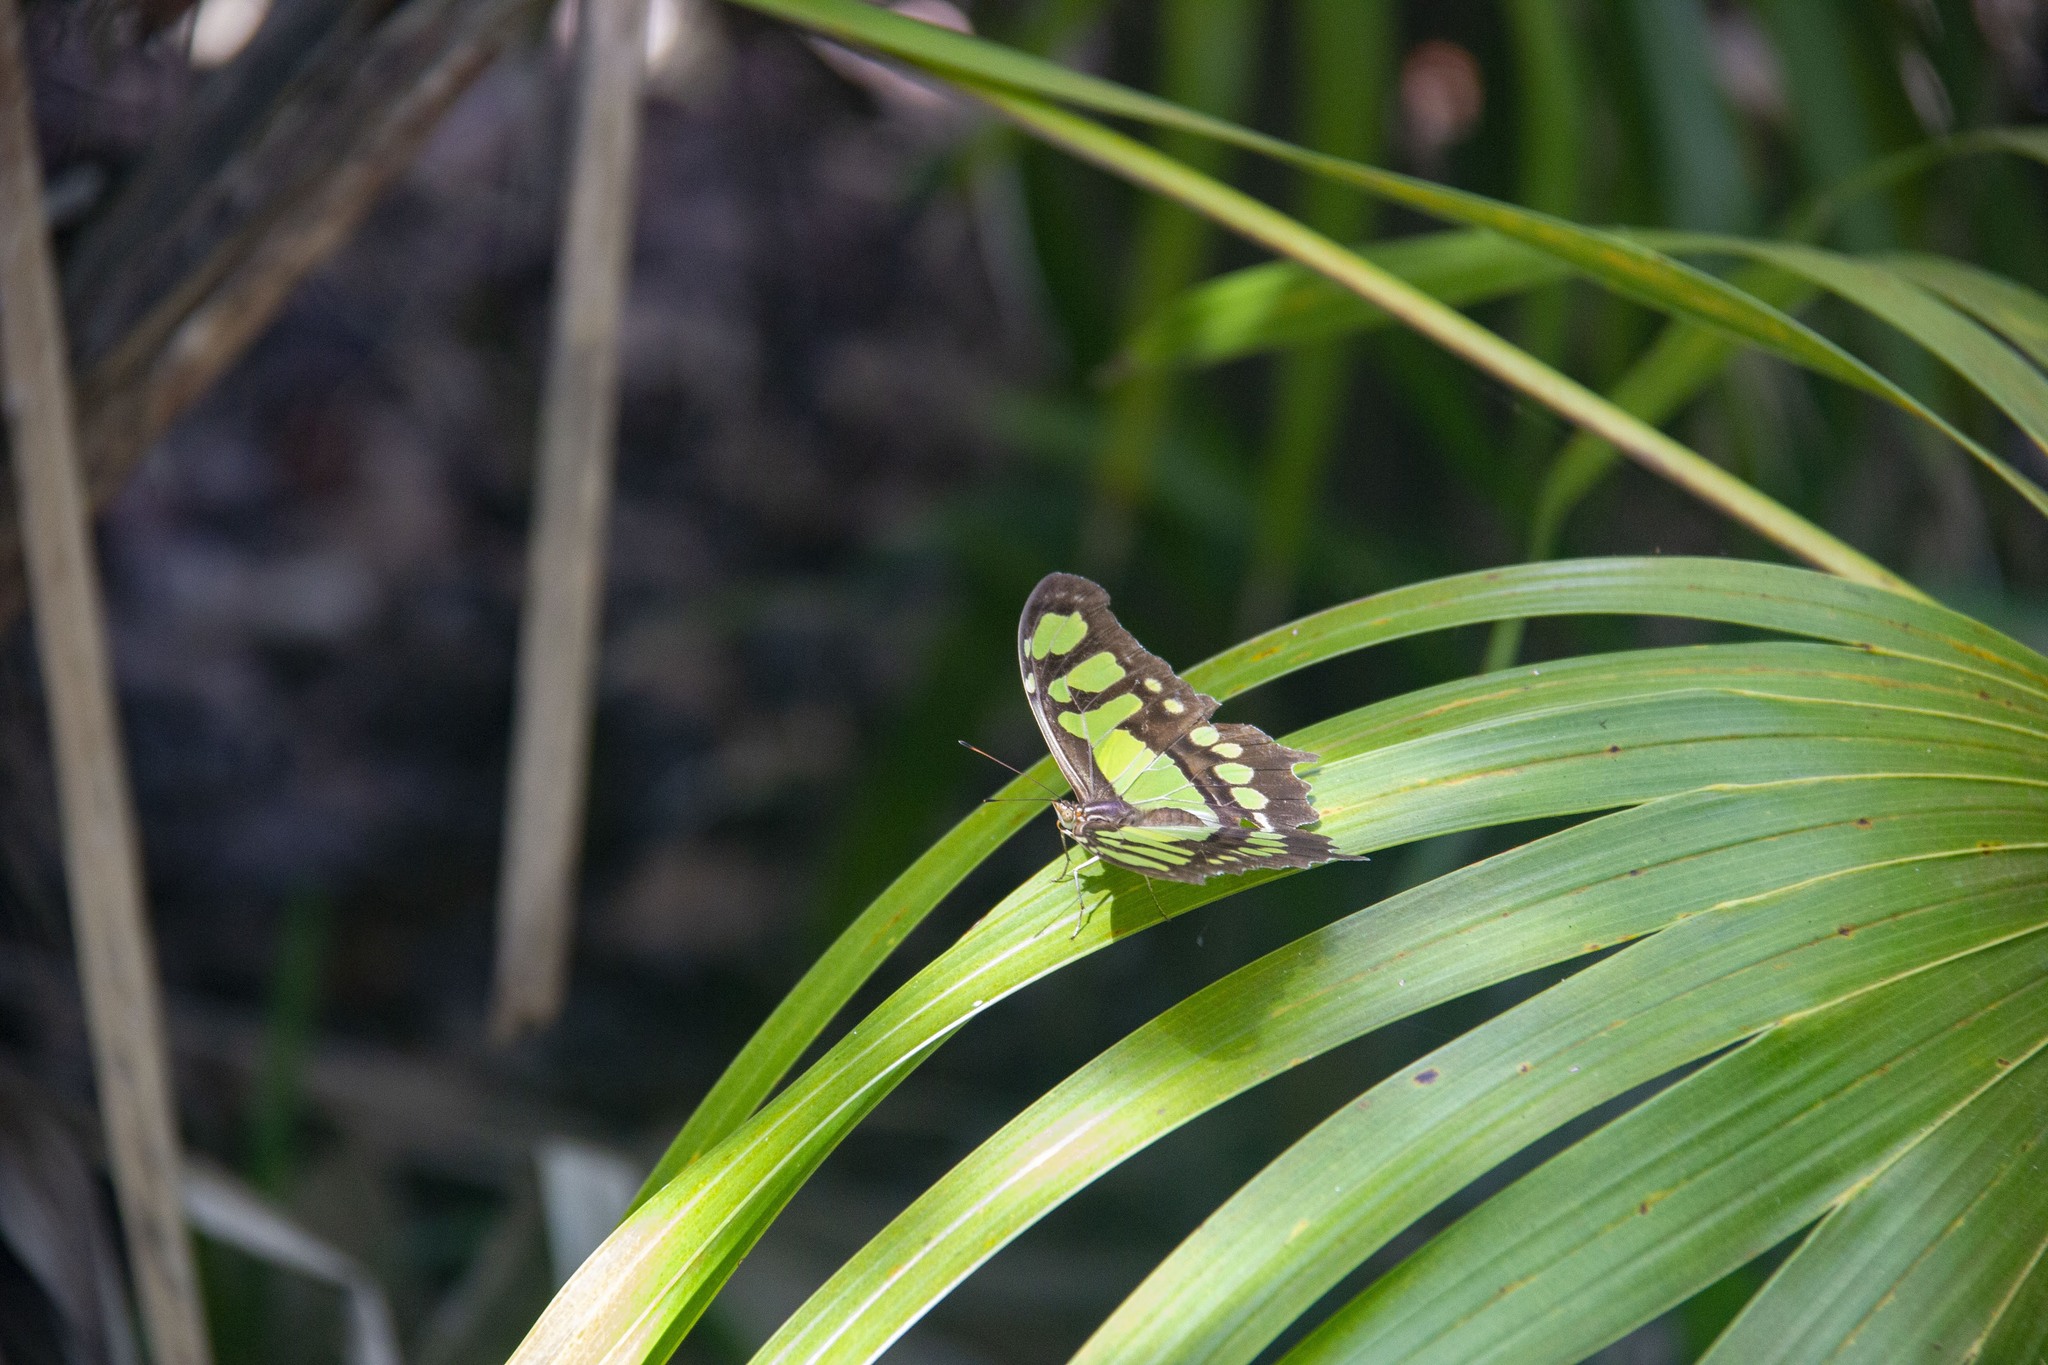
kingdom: Animalia
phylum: Arthropoda
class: Insecta
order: Lepidoptera
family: Nymphalidae
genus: Siproeta
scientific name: Siproeta stelenes
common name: Malachite
